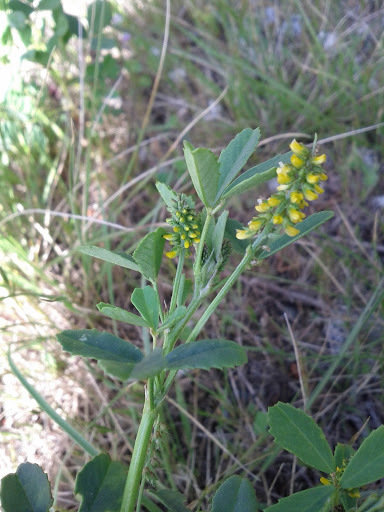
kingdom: Plantae
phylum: Tracheophyta
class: Magnoliopsida
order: Fabales
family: Fabaceae
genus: Melilotus
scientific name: Melilotus indicus
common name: Small melilot
